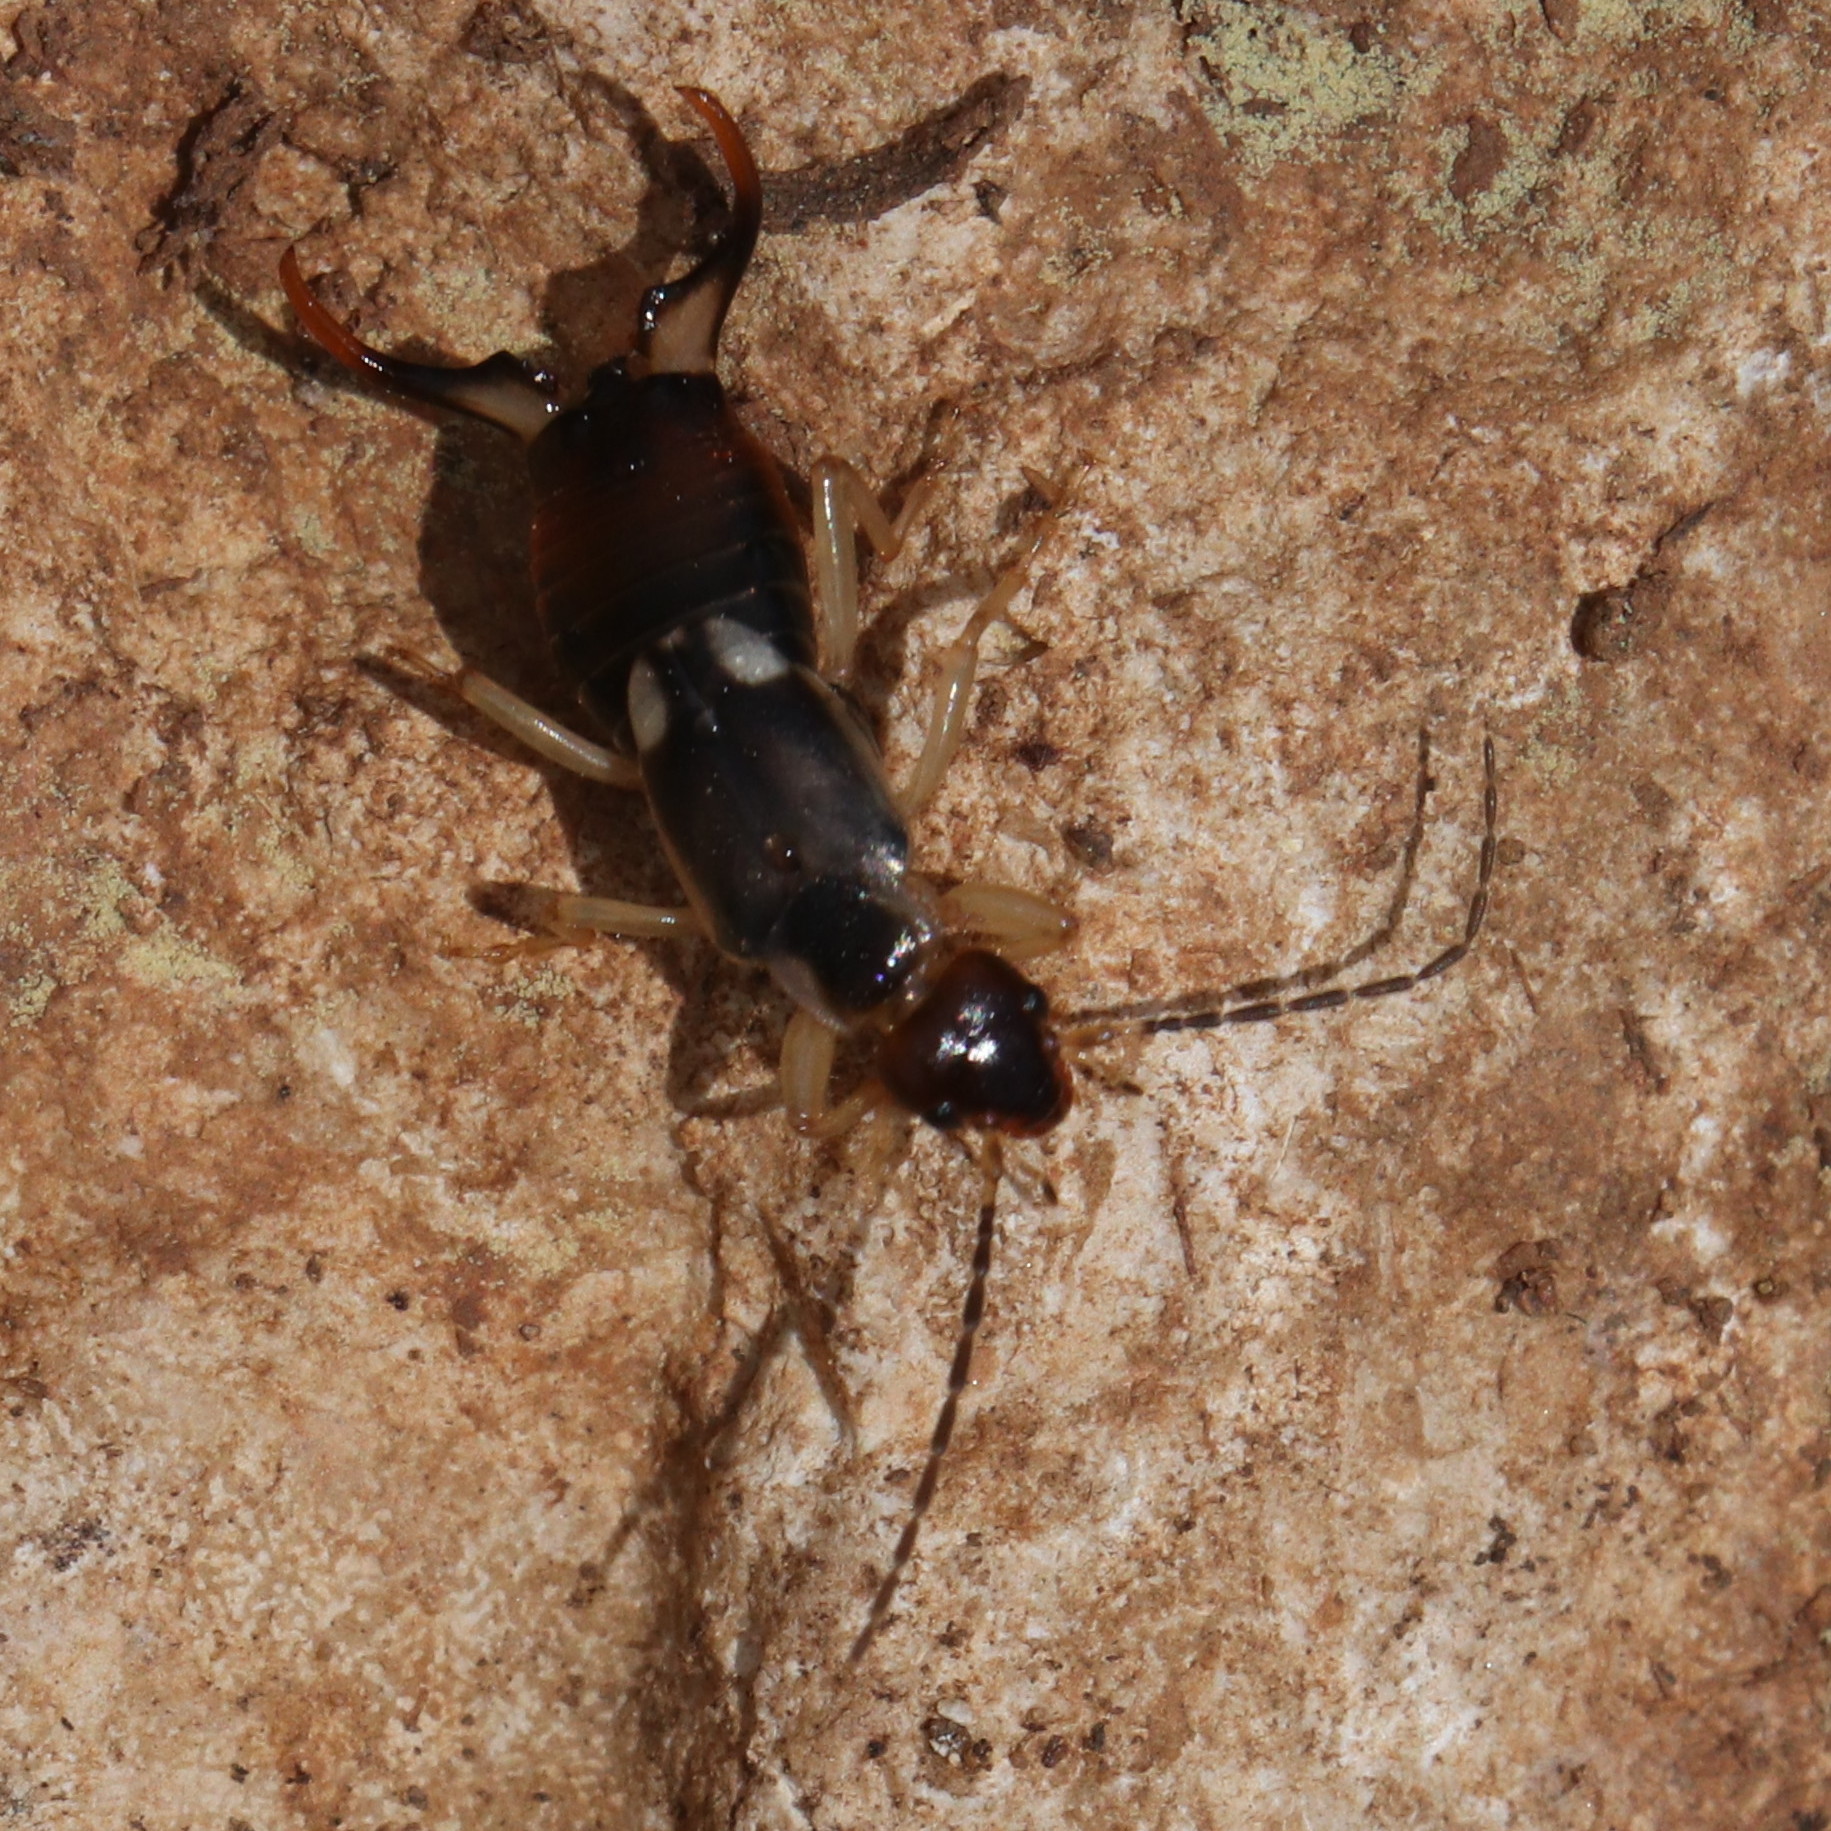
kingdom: Animalia
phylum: Arthropoda
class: Insecta
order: Dermaptera
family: Forficulidae
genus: Forficula
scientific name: Forficula lurida
